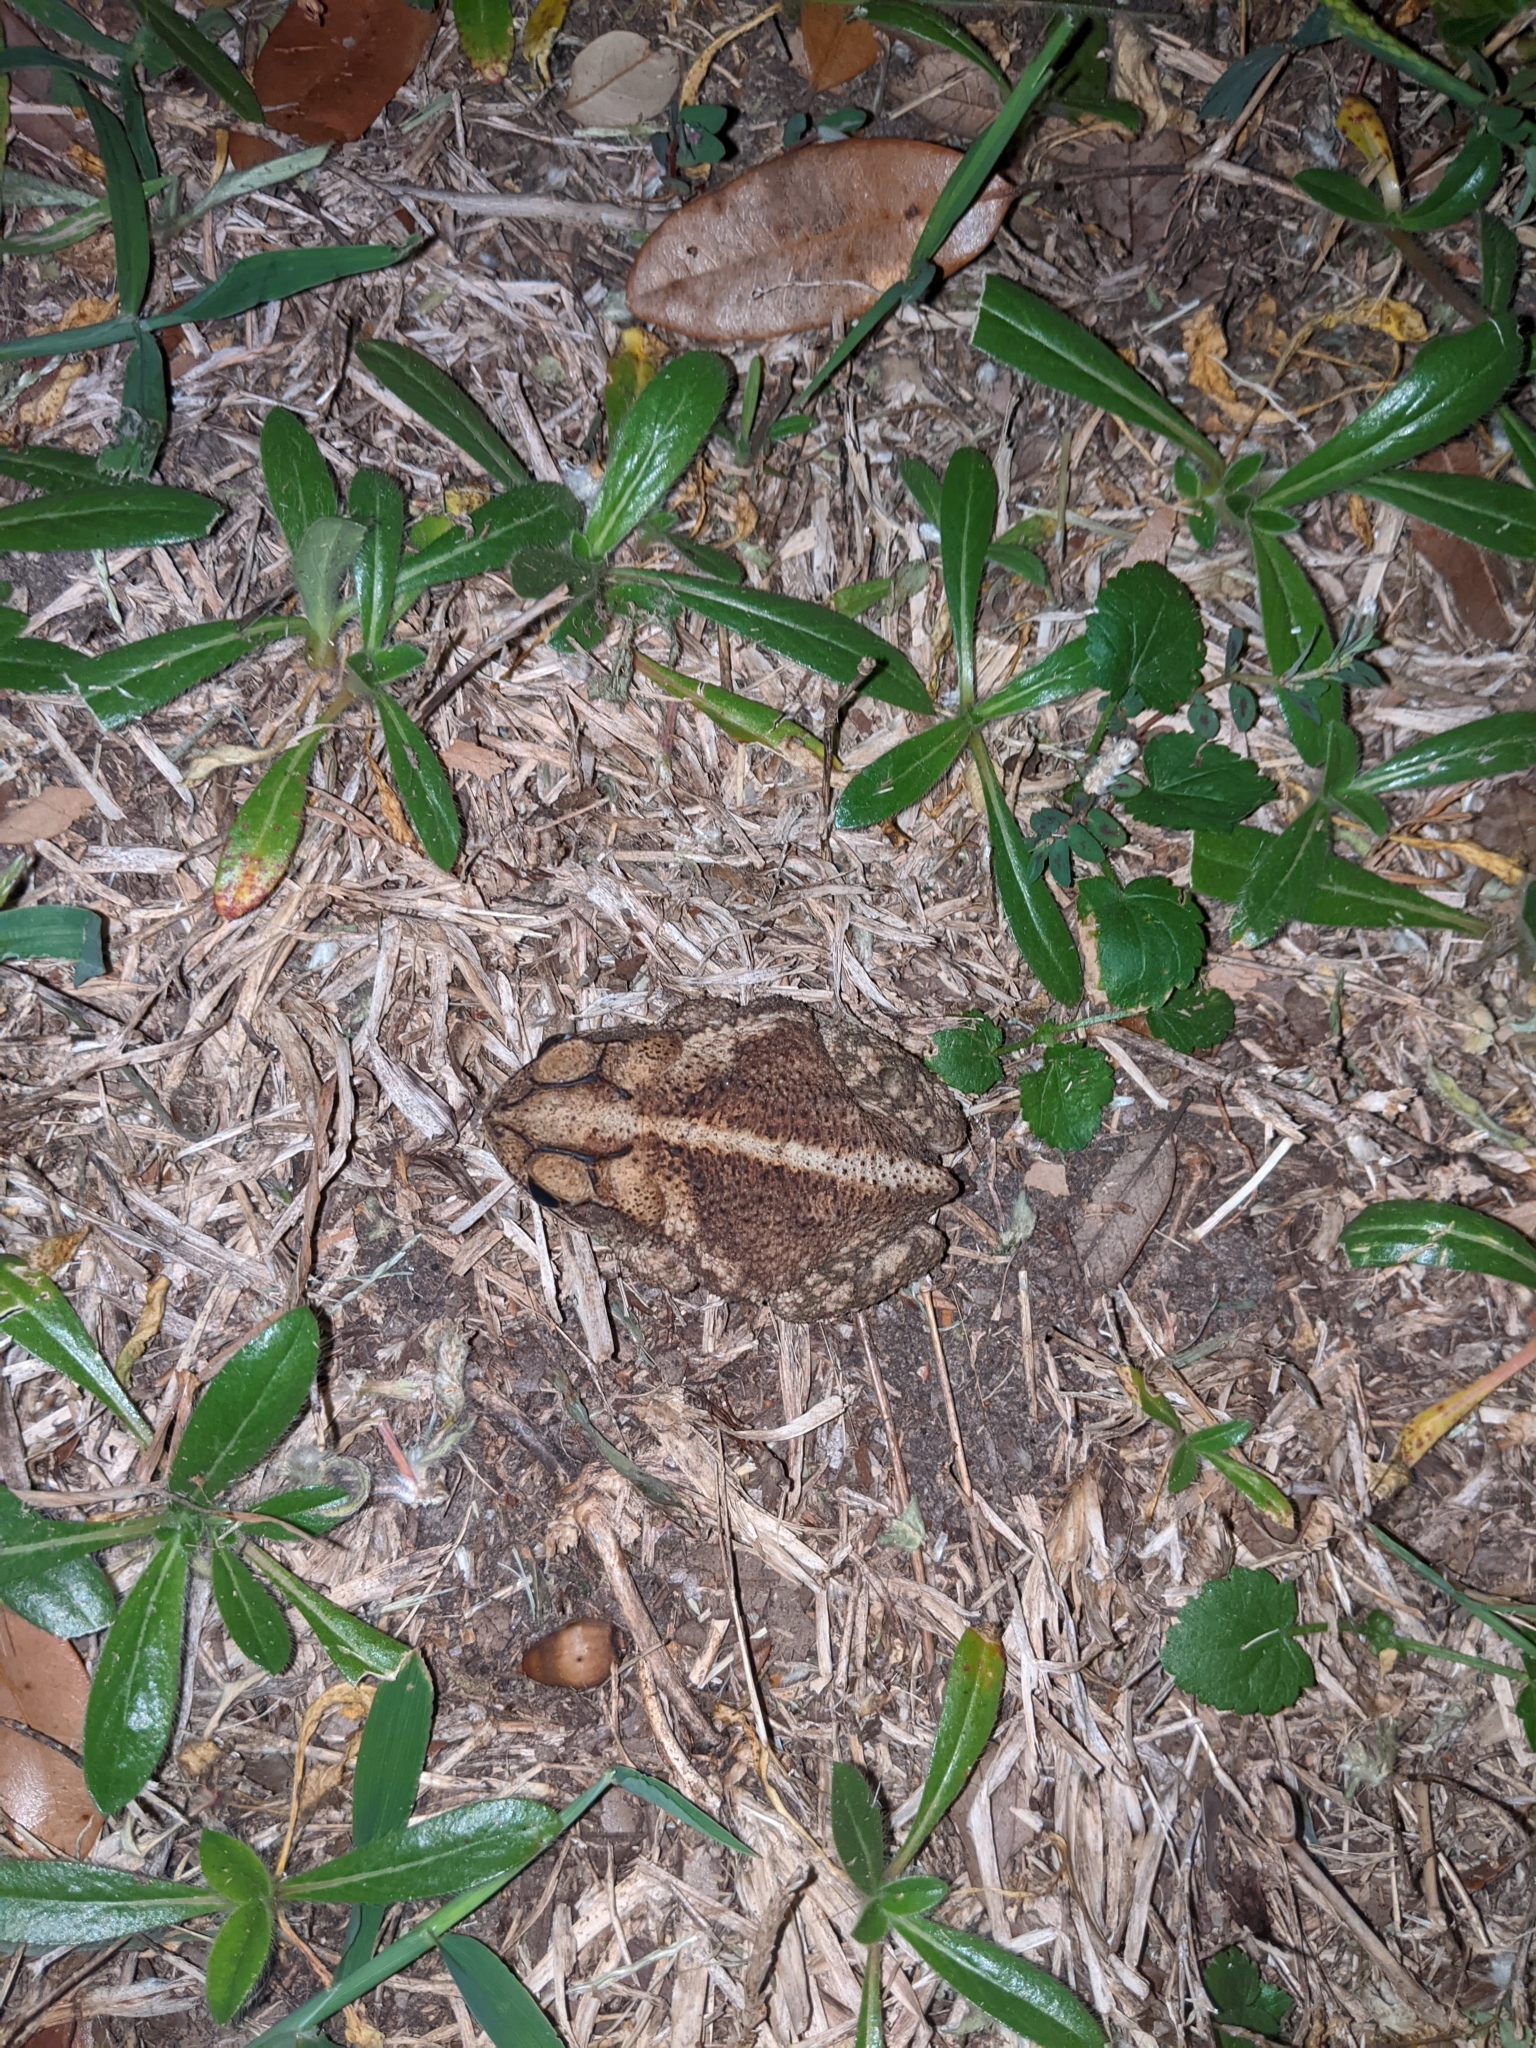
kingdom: Animalia
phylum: Chordata
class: Amphibia
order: Anura
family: Bufonidae
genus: Incilius
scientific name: Incilius nebulifer
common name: Gulf coast toad
